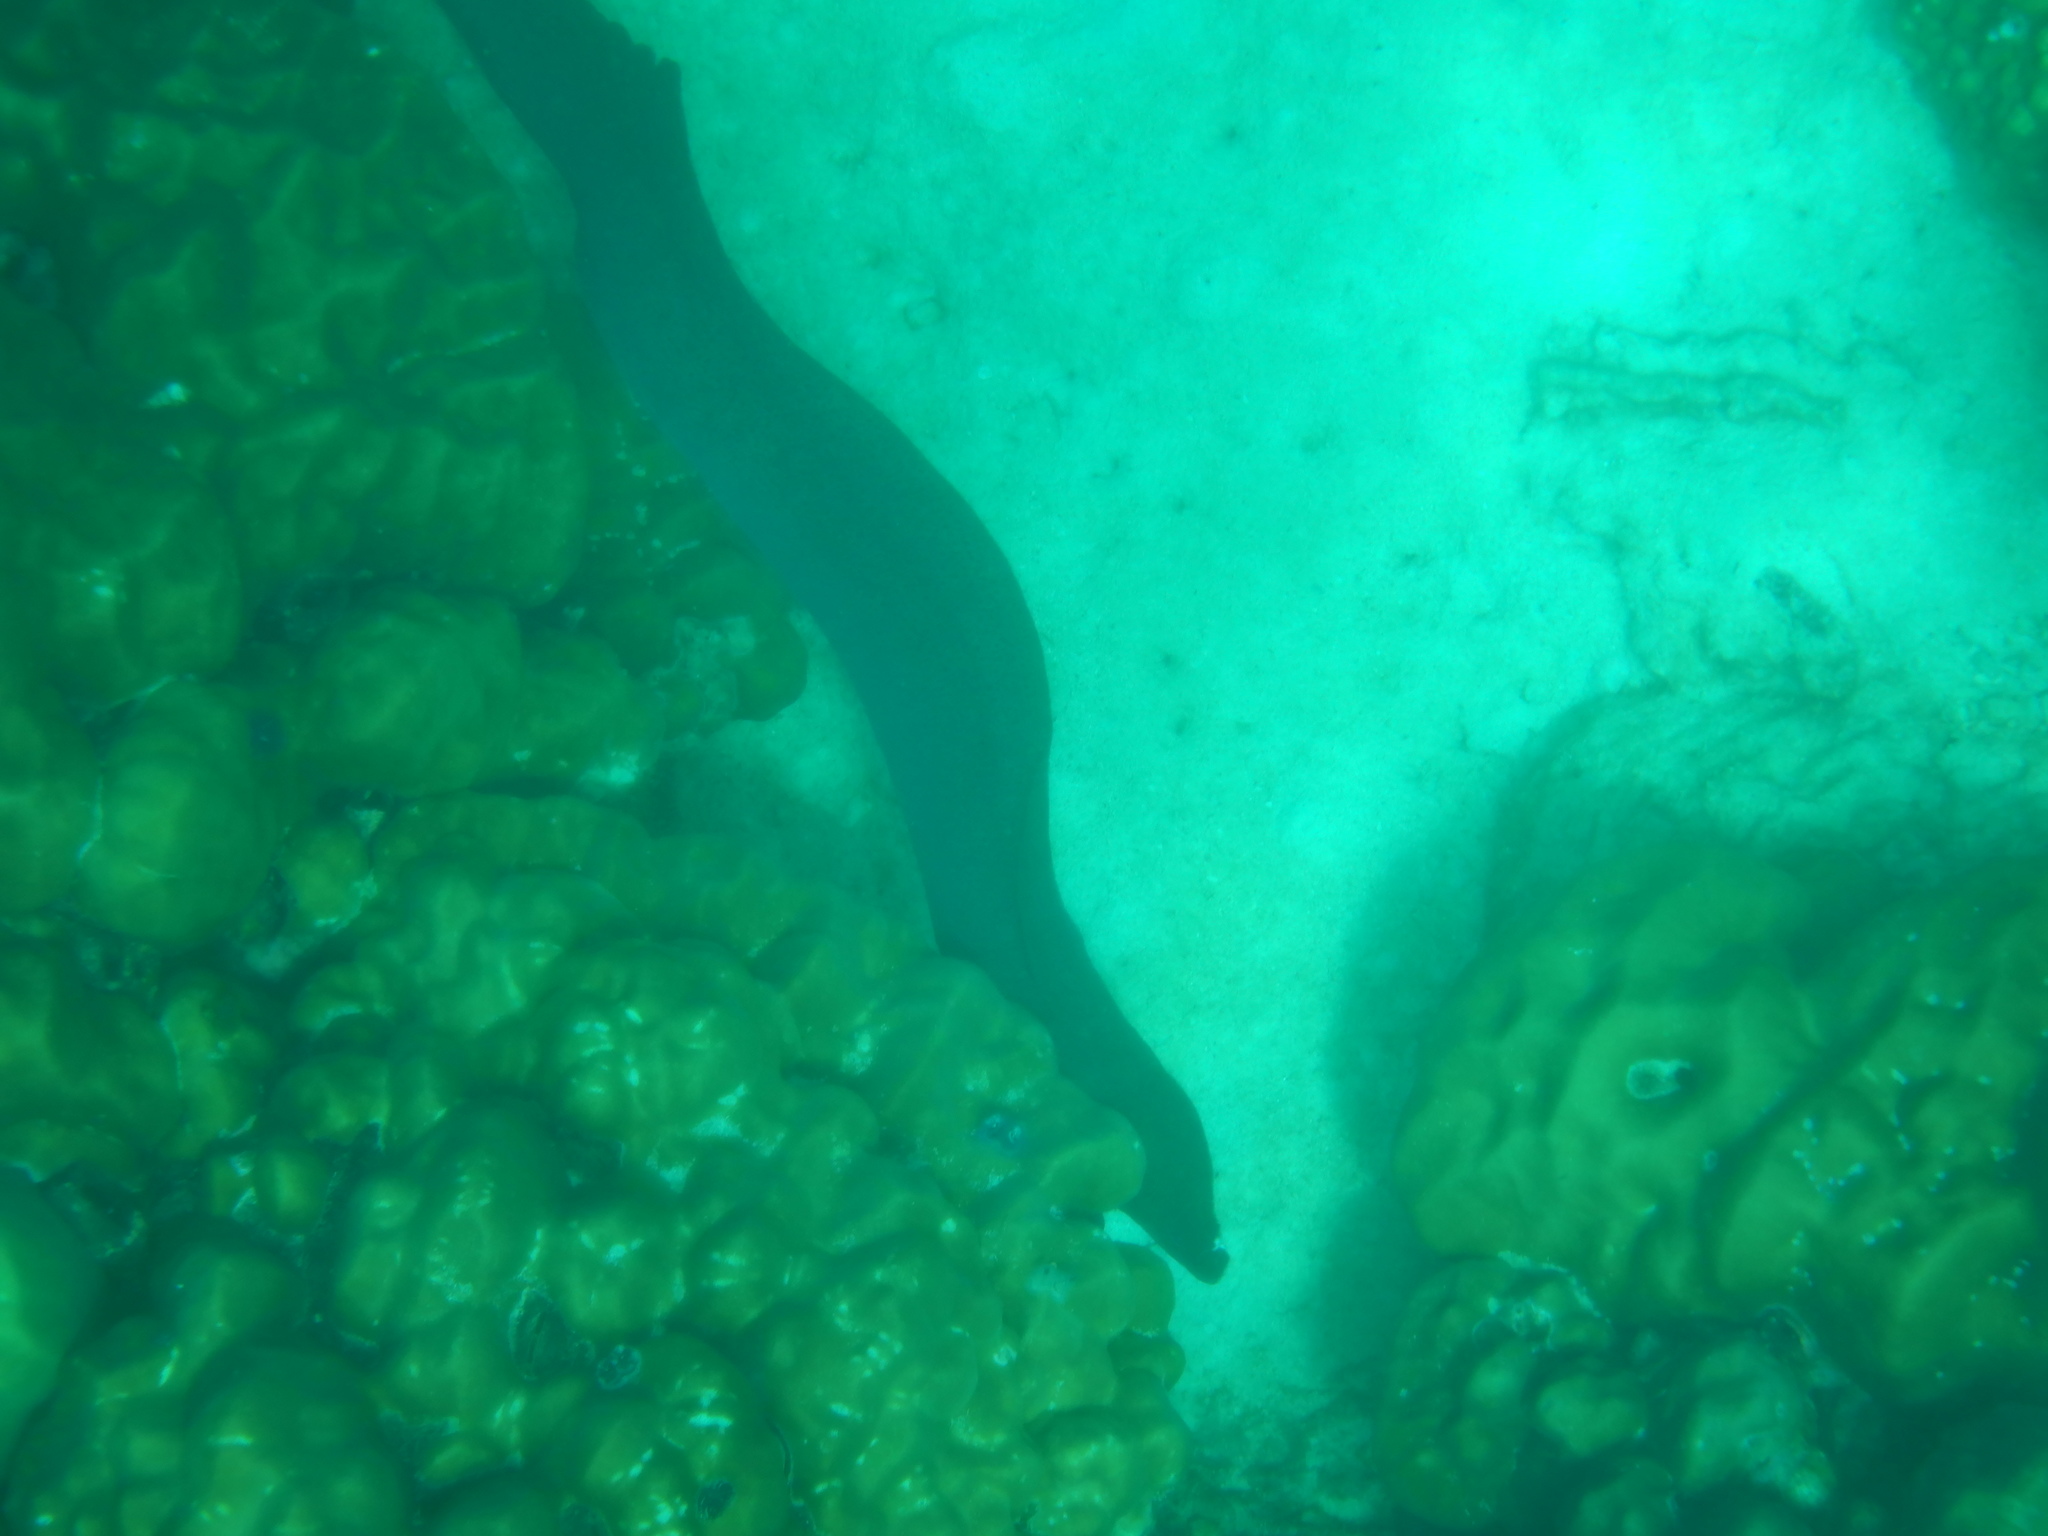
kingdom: Animalia
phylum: Chordata
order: Anguilliformes
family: Muraenidae
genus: Gymnothorax
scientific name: Gymnothorax javanicus
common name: Giant moray
